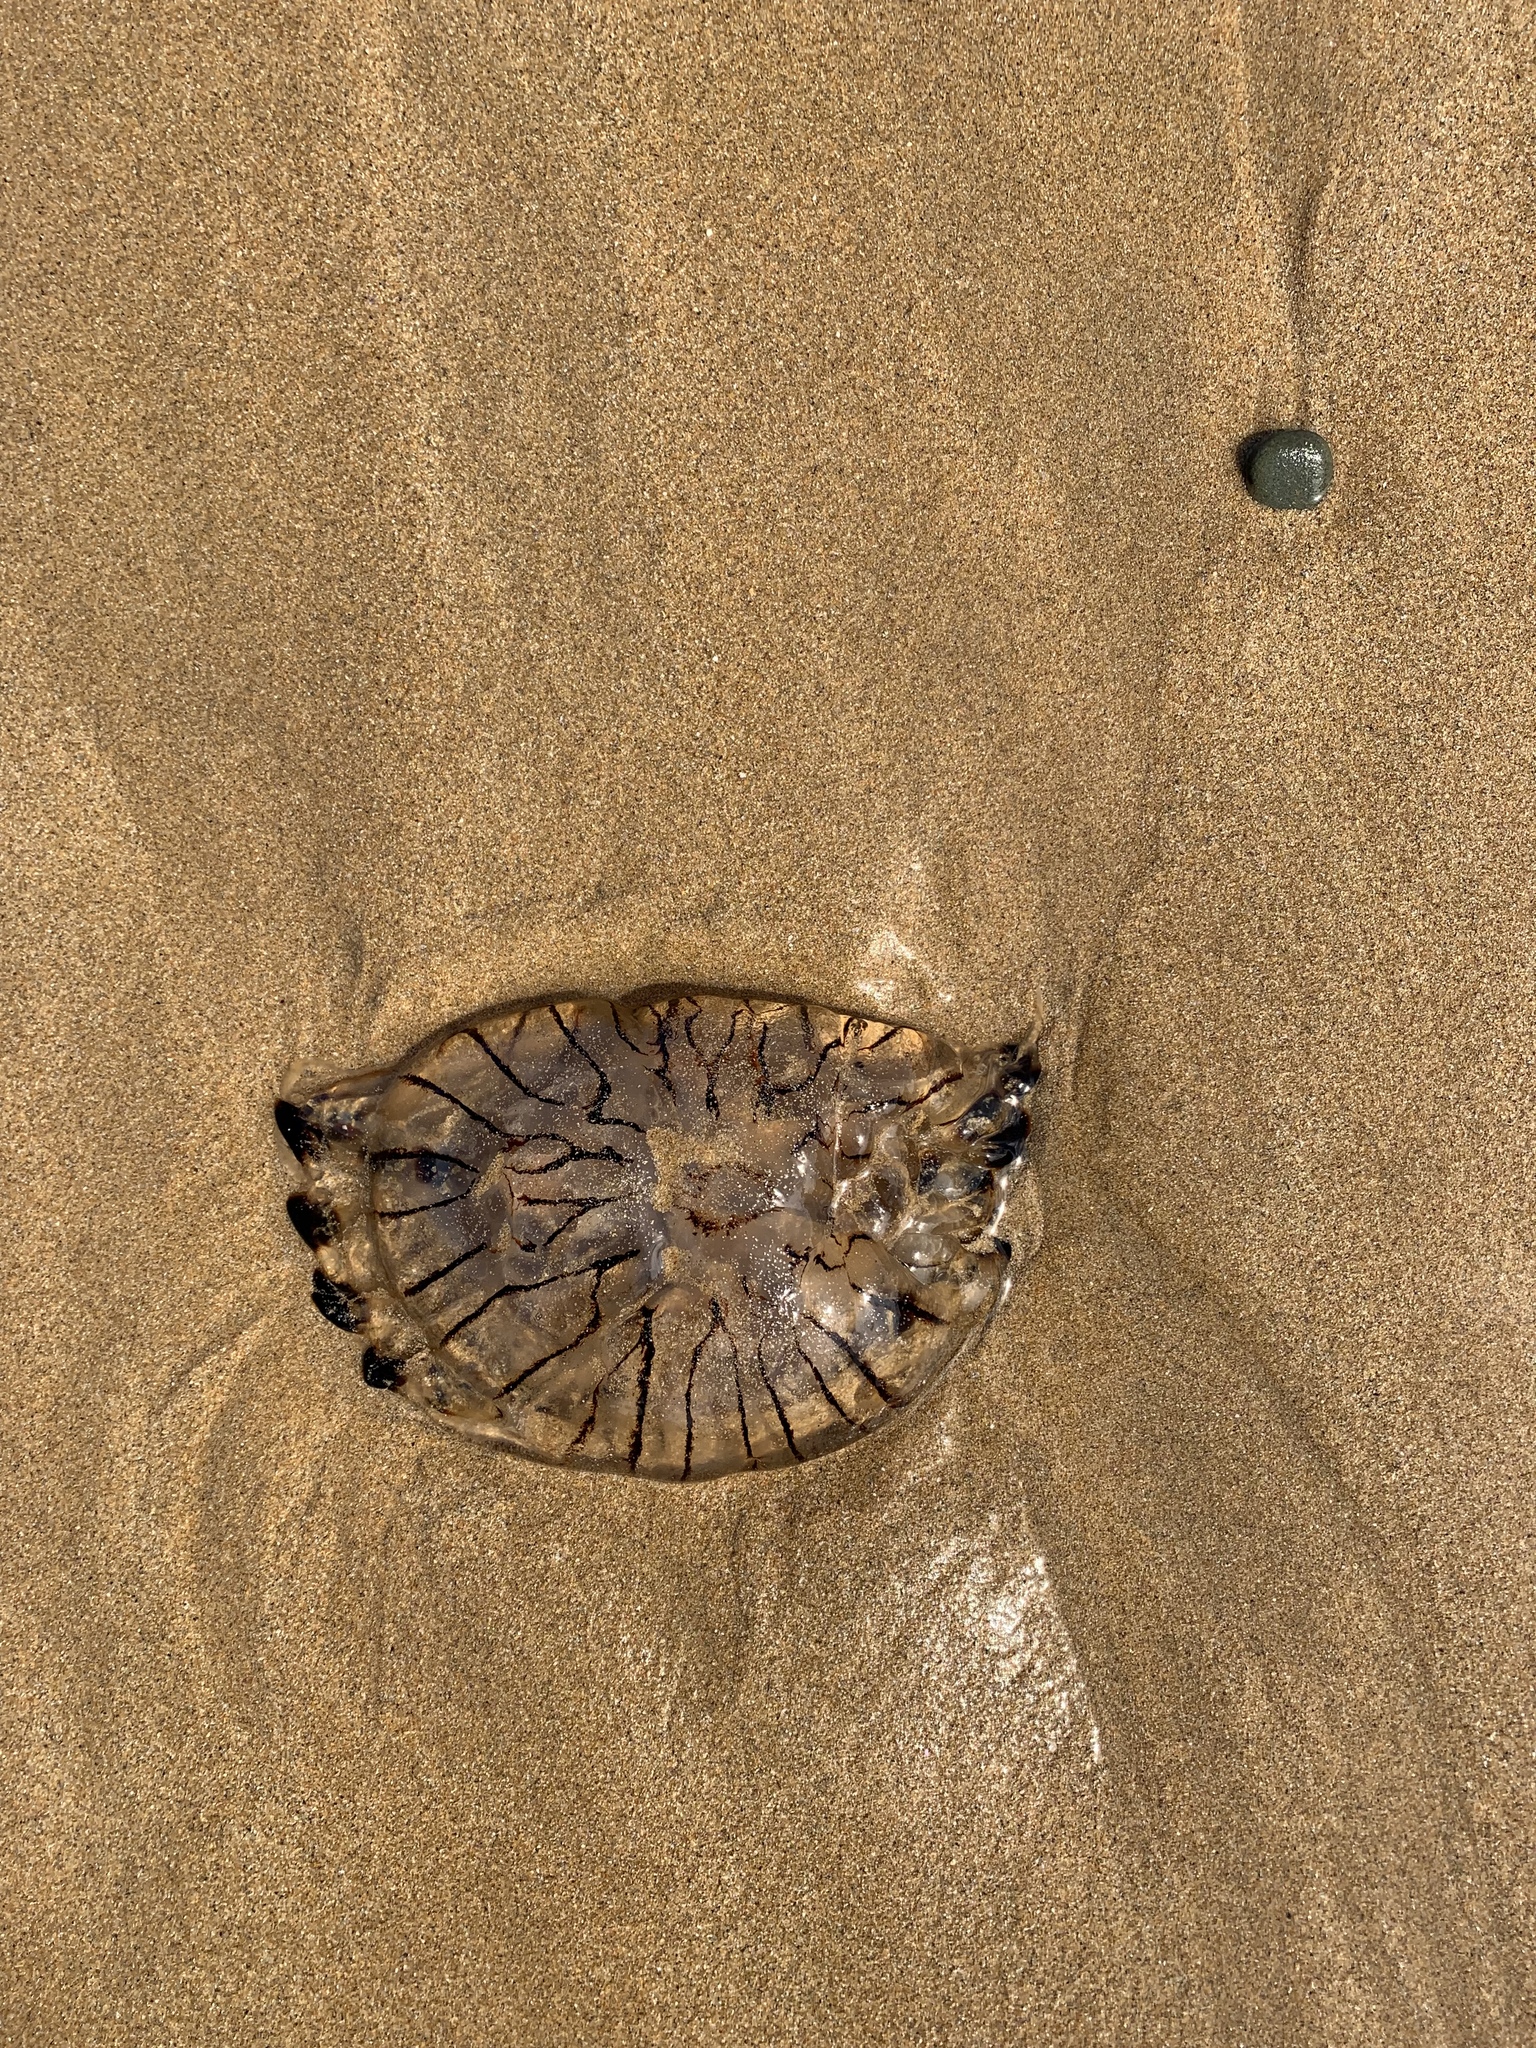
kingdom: Animalia
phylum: Cnidaria
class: Scyphozoa
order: Semaeostomeae
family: Pelagiidae
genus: Chrysaora
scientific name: Chrysaora hysoscella
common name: Compass jellyfish
